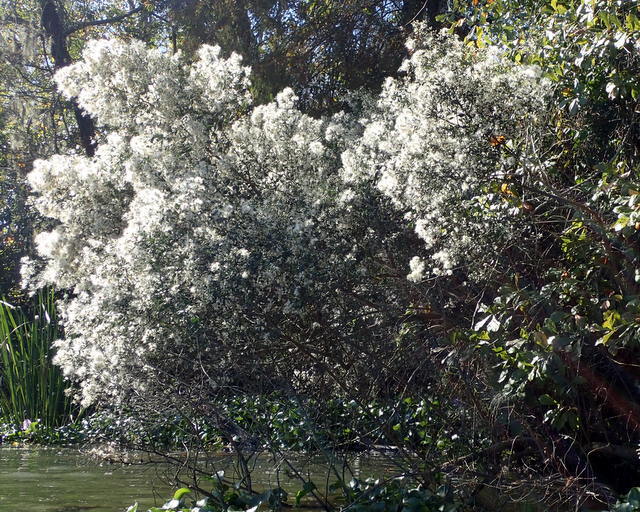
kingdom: Plantae
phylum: Tracheophyta
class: Magnoliopsida
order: Asterales
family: Asteraceae
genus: Baccharis
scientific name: Baccharis halimifolia
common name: Eastern baccharis
